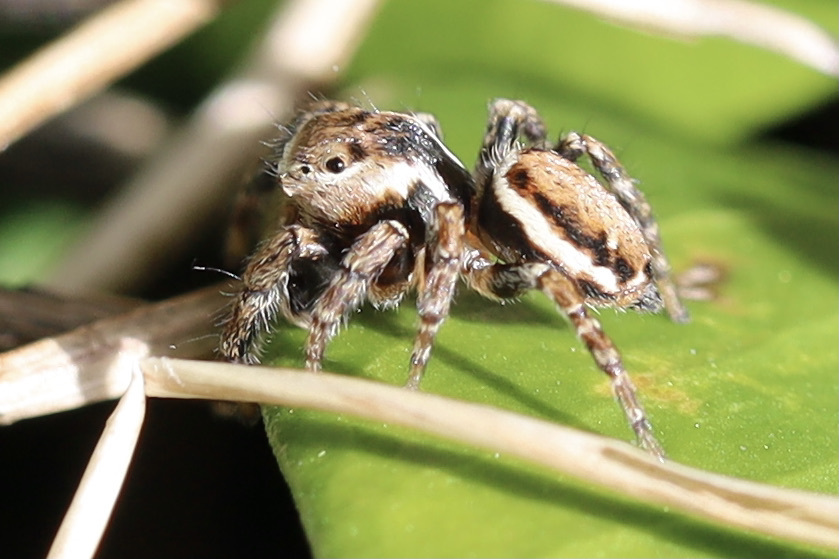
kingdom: Animalia
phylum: Arthropoda
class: Arachnida
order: Araneae
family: Salticidae
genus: Evarcha
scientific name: Evarcha proszynskii
